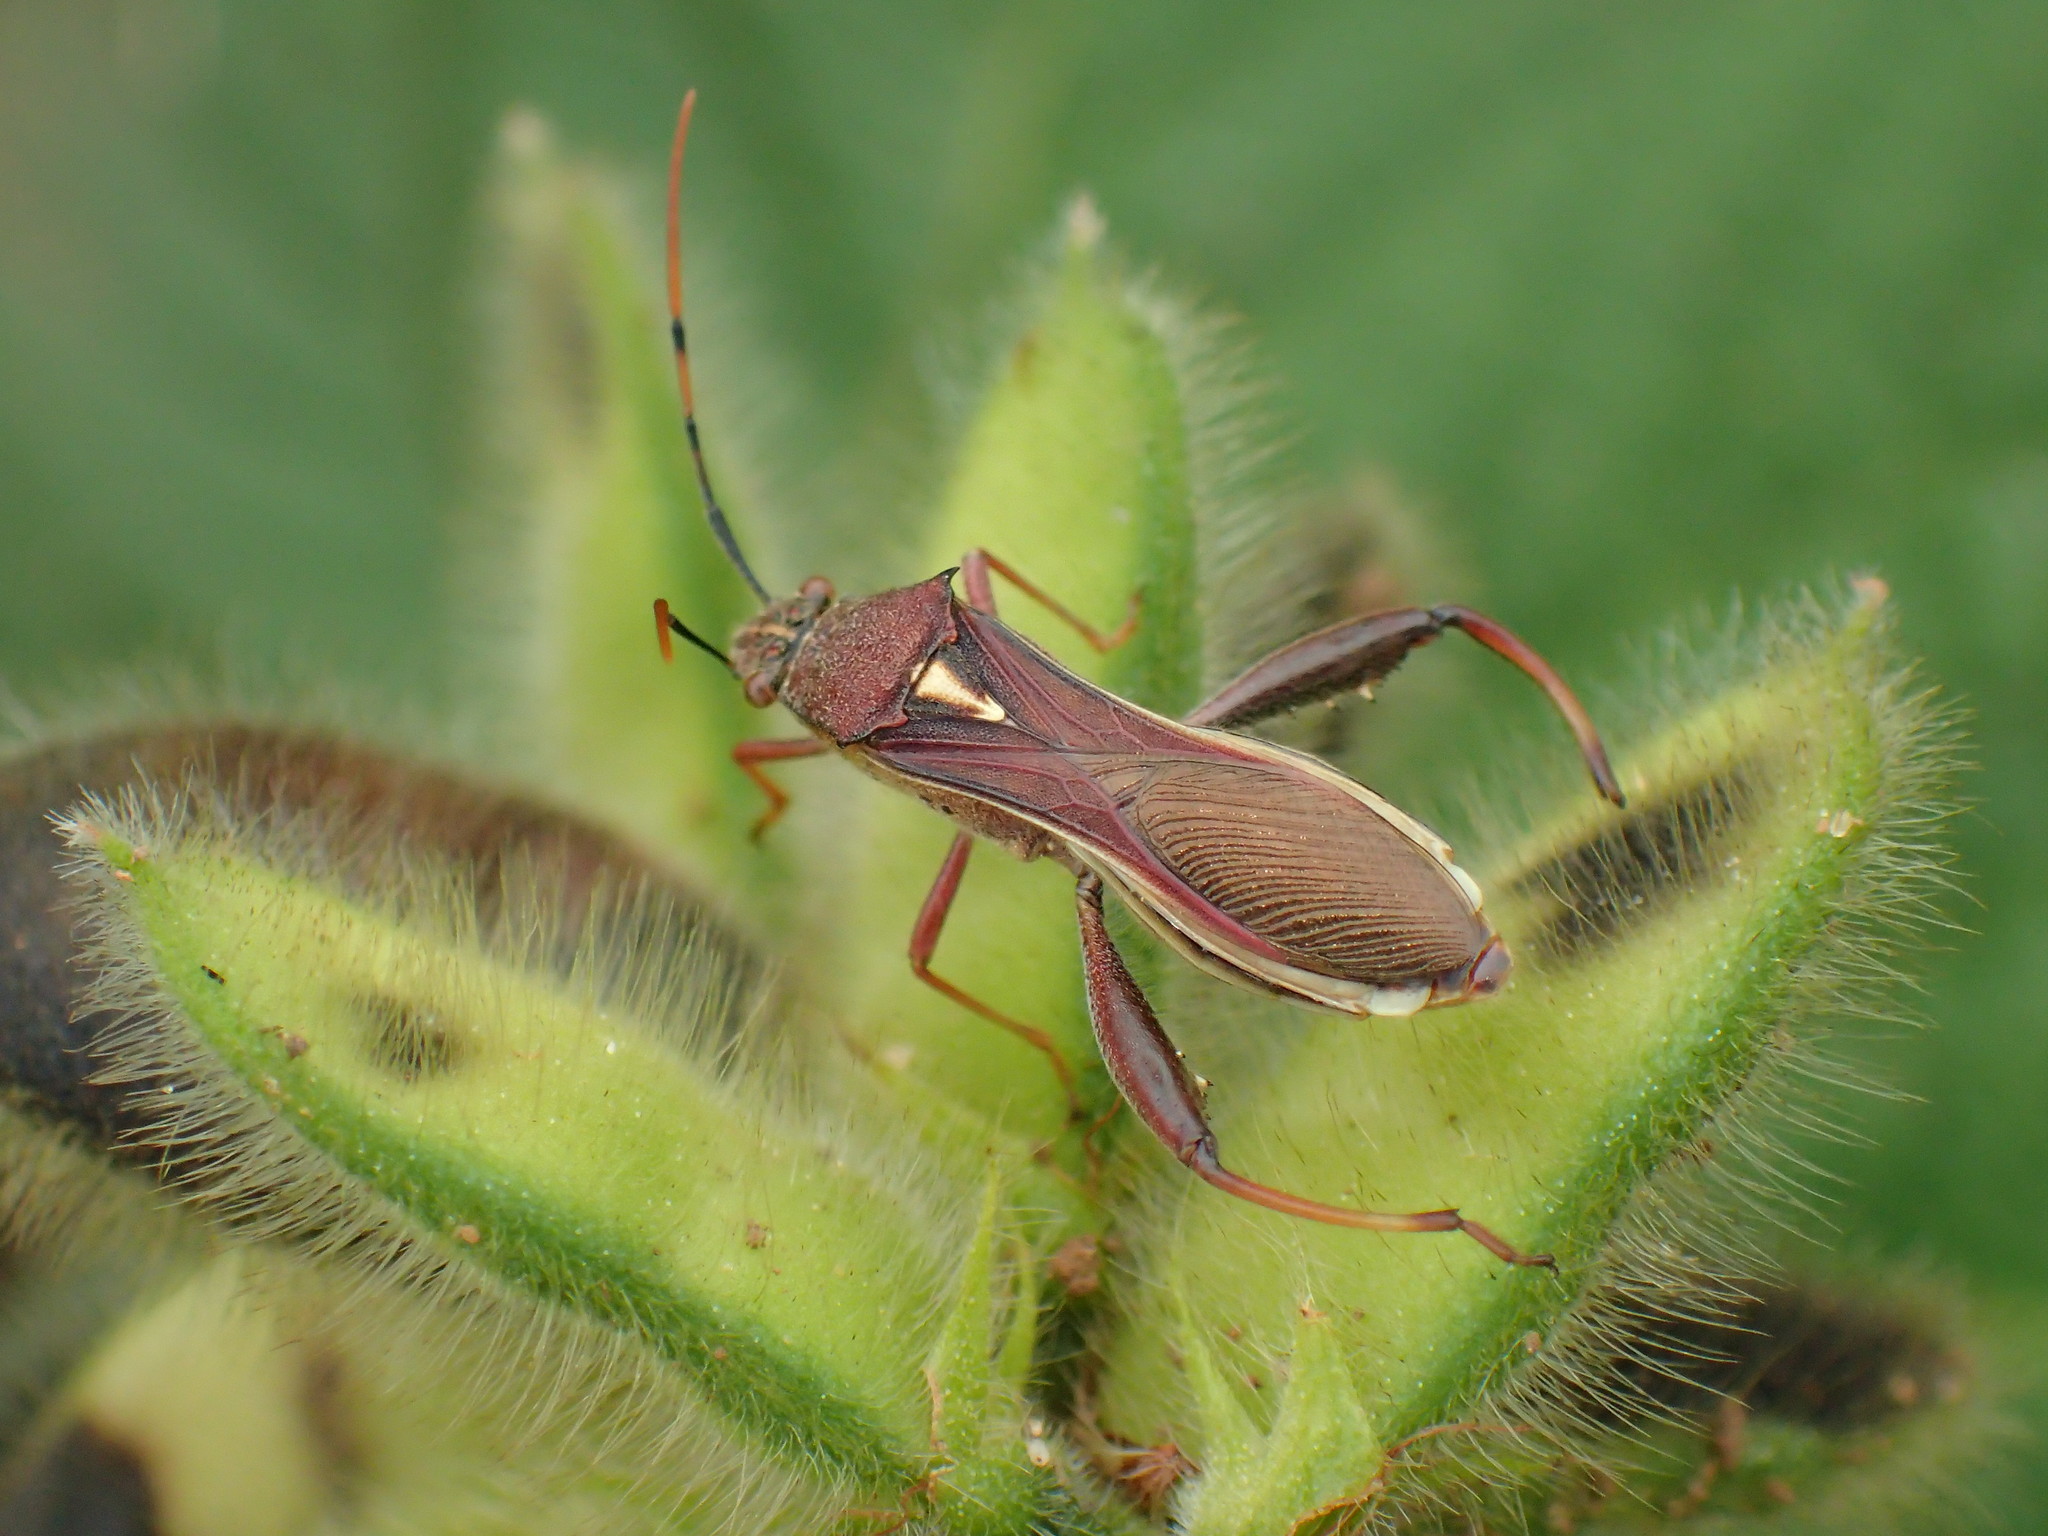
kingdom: Animalia
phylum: Arthropoda
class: Insecta
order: Hemiptera
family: Alydidae
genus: Mirperus
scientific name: Mirperus jaculus
